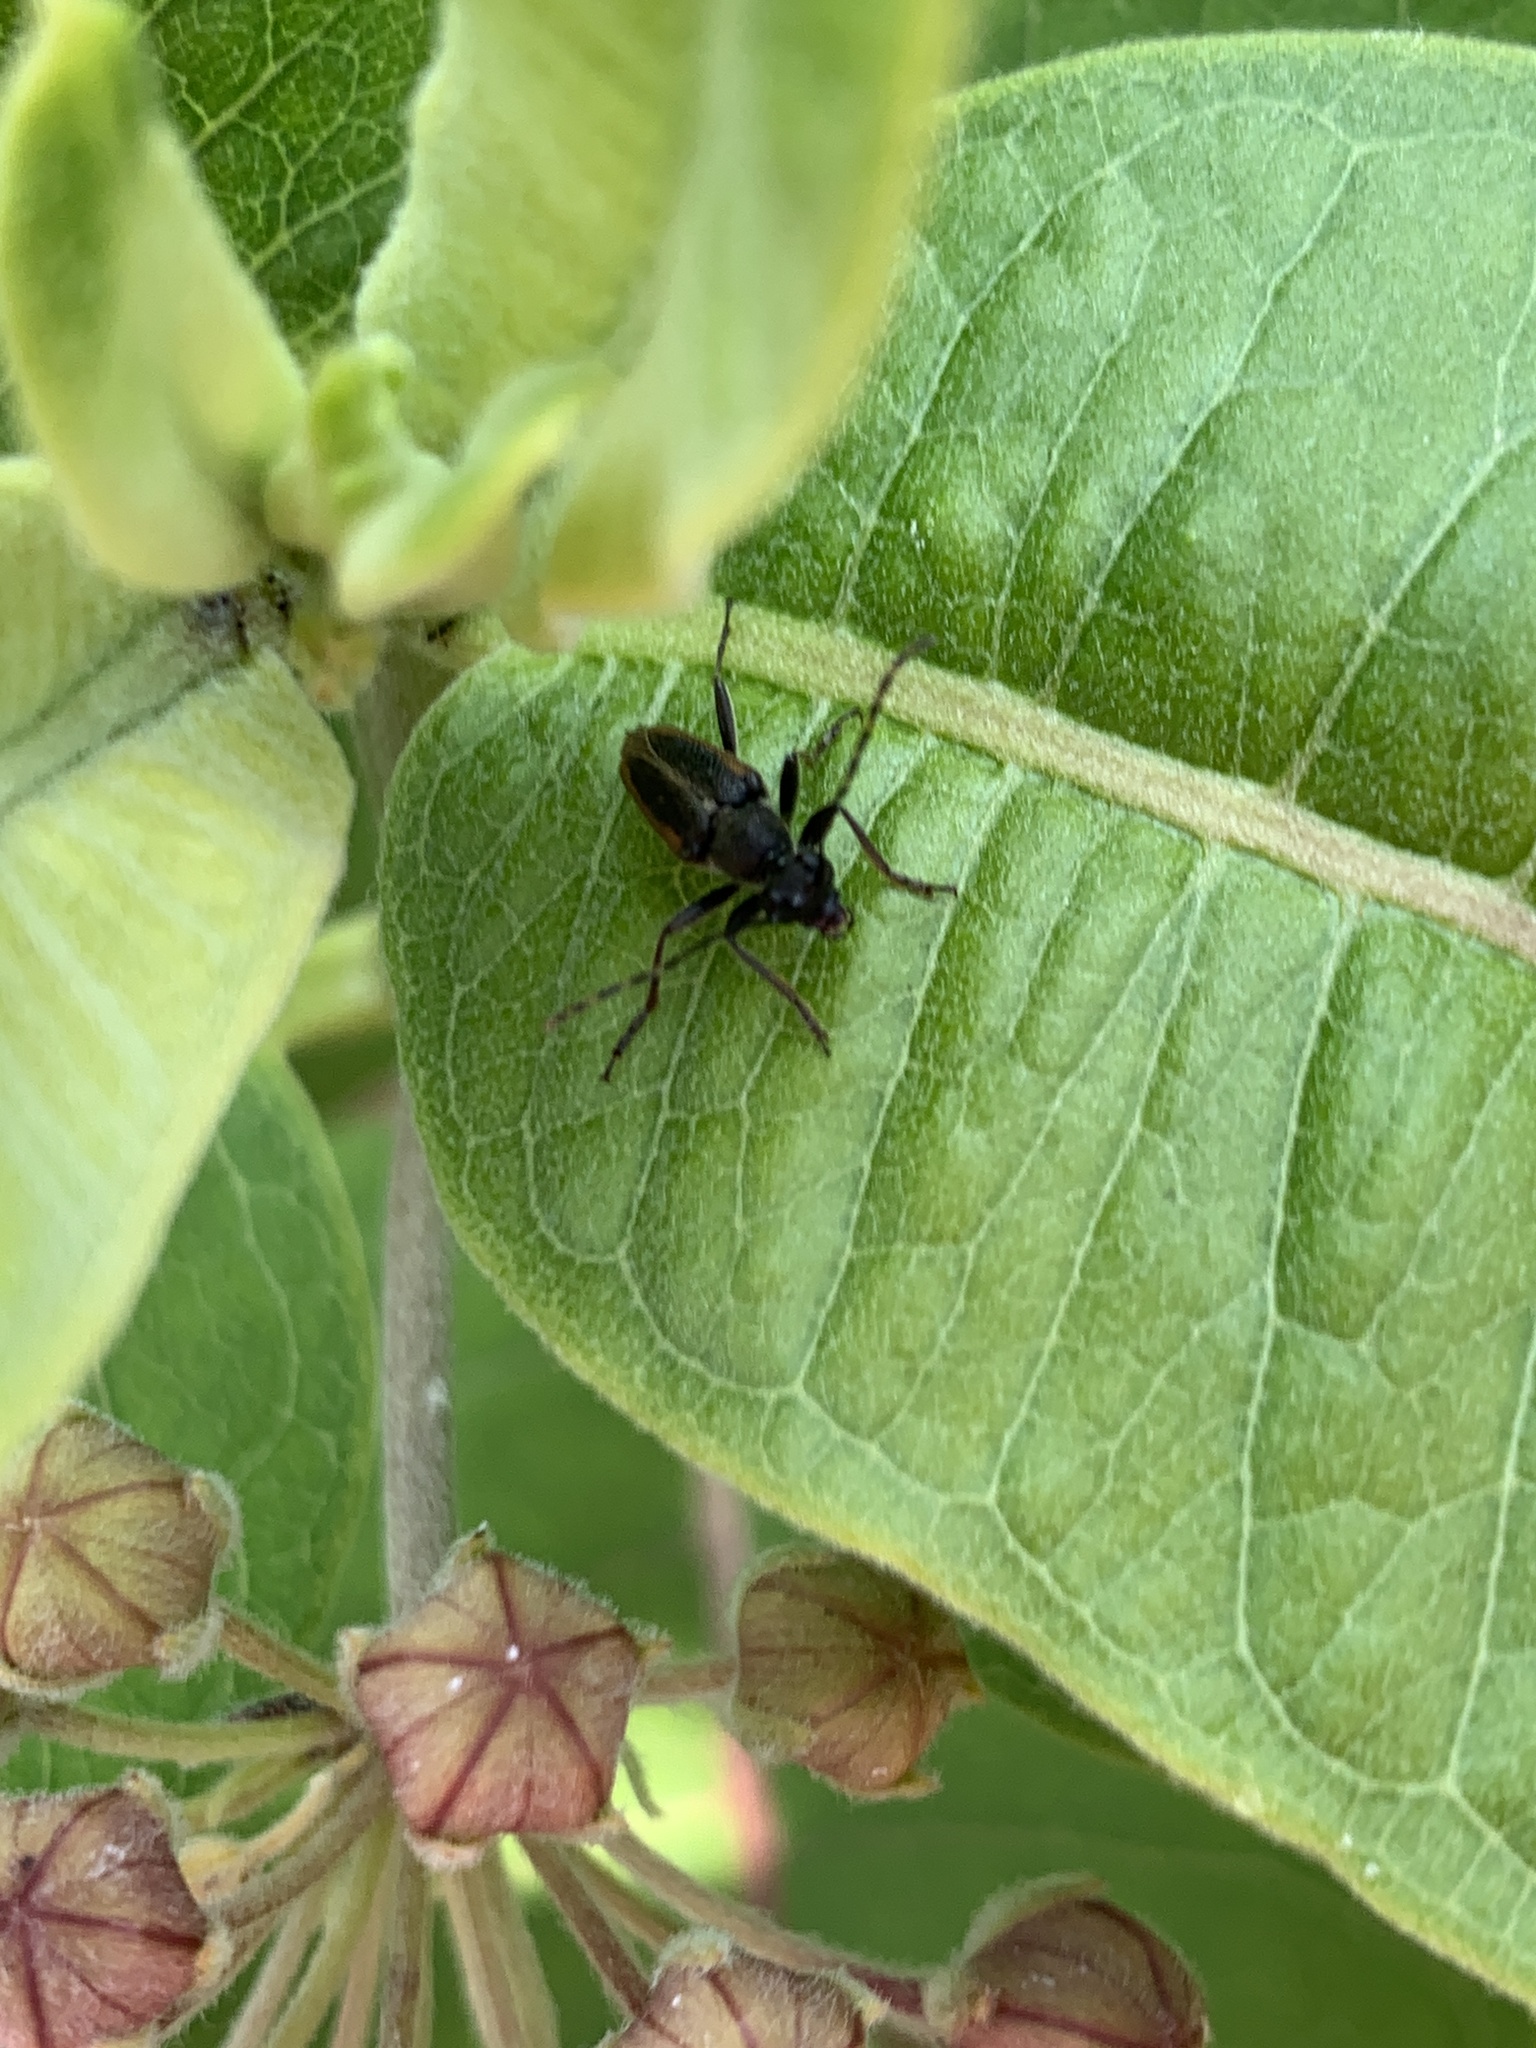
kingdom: Animalia
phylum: Arthropoda
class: Insecta
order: Coleoptera
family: Cerambycidae
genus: Strangalepta
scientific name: Strangalepta abbreviata
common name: Strangalepta flower longhorn beetle
